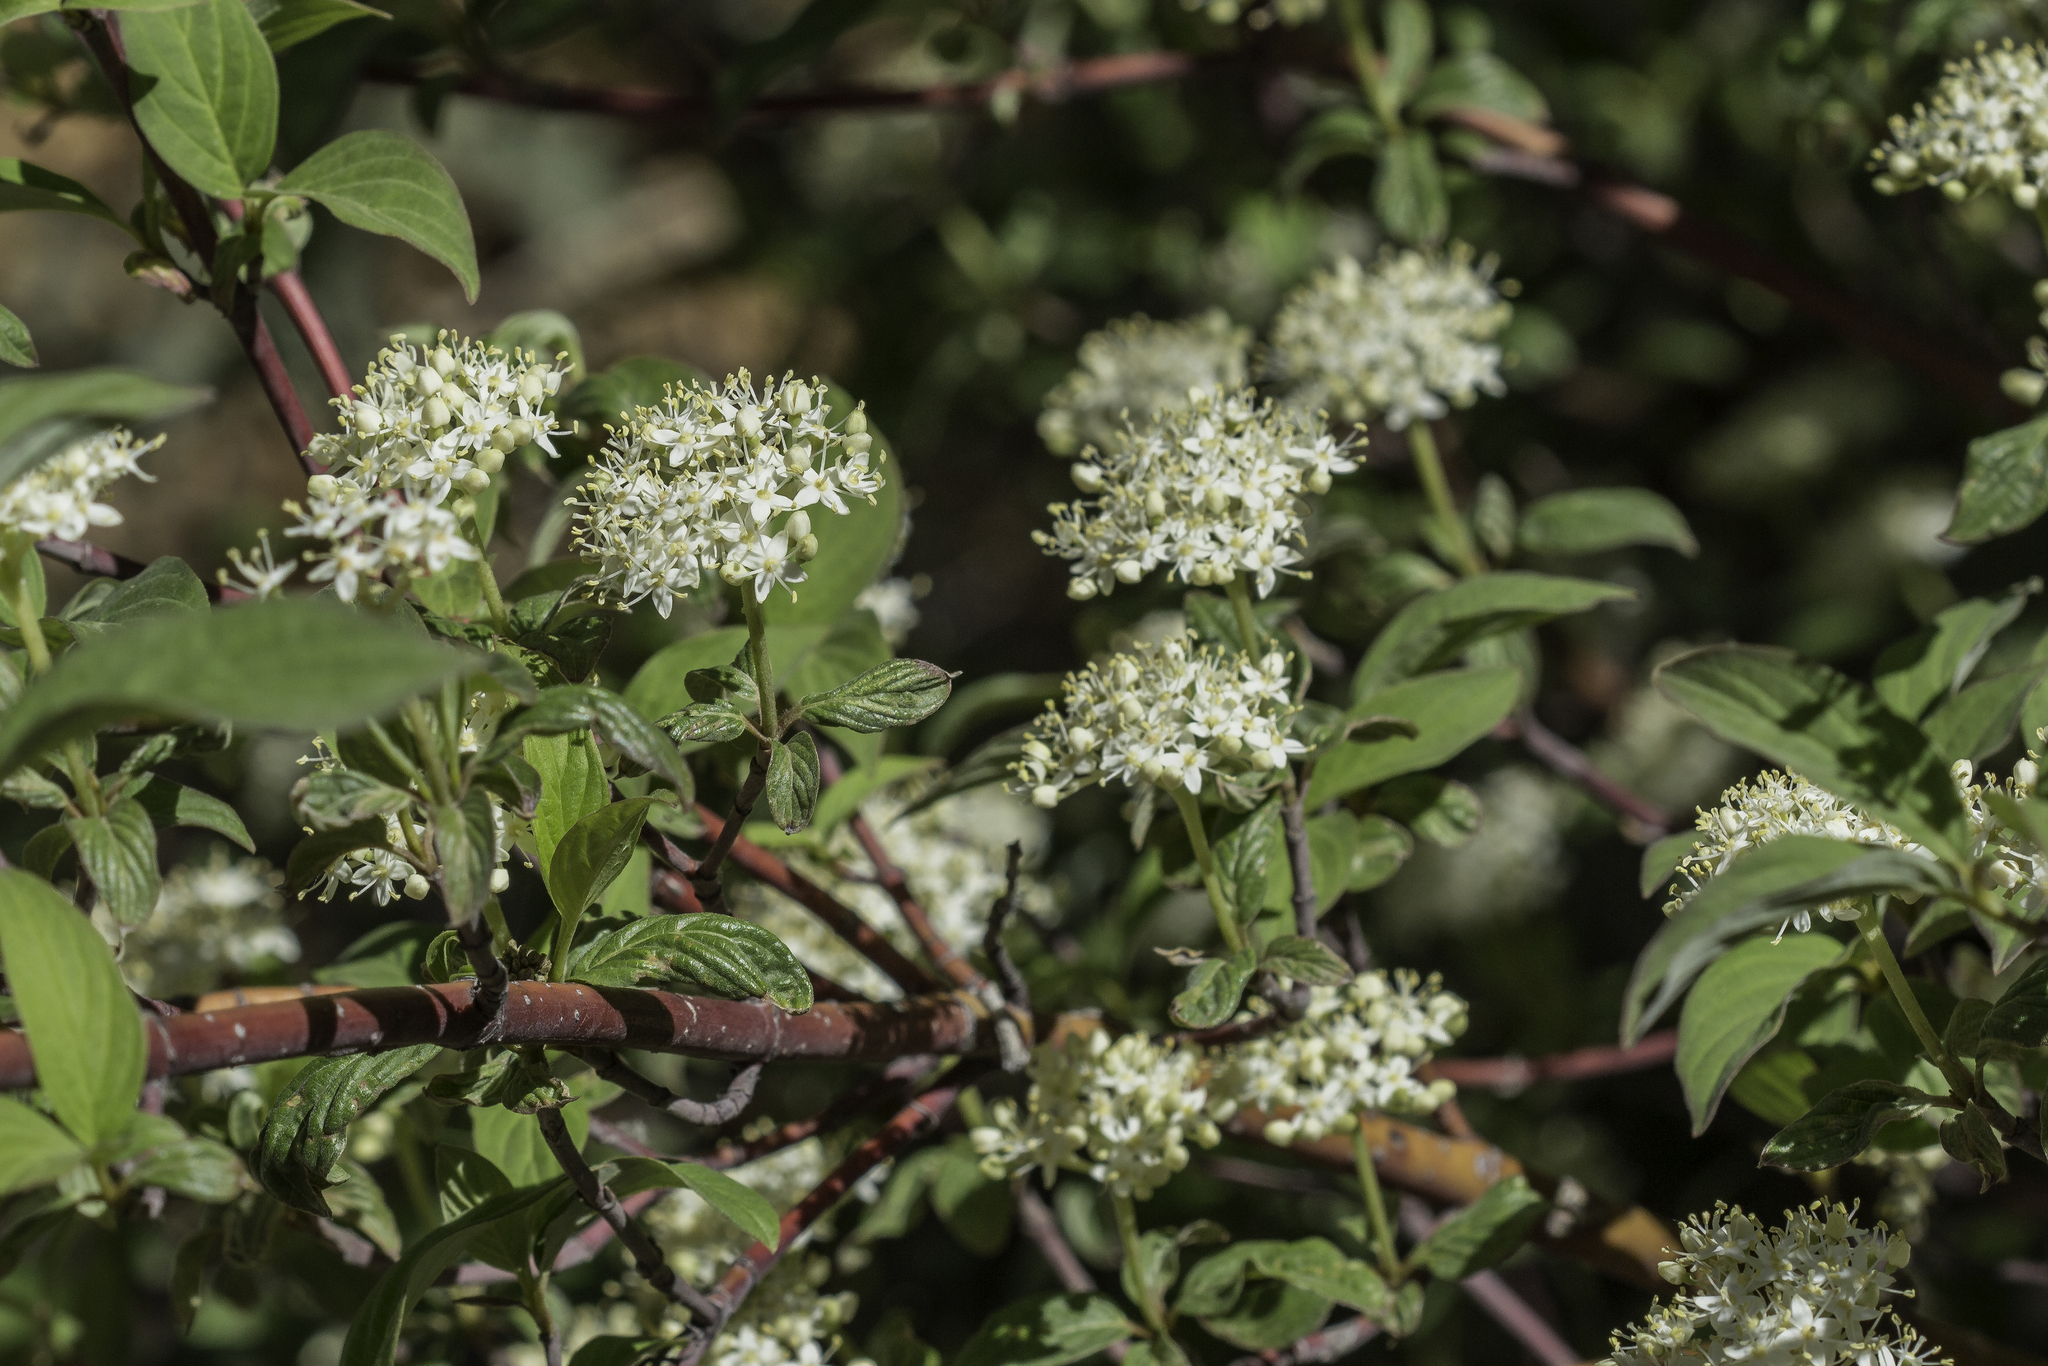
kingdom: Plantae
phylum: Tracheophyta
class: Magnoliopsida
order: Cornales
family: Cornaceae
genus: Cornus
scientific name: Cornus sericea
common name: Red-osier dogwood
